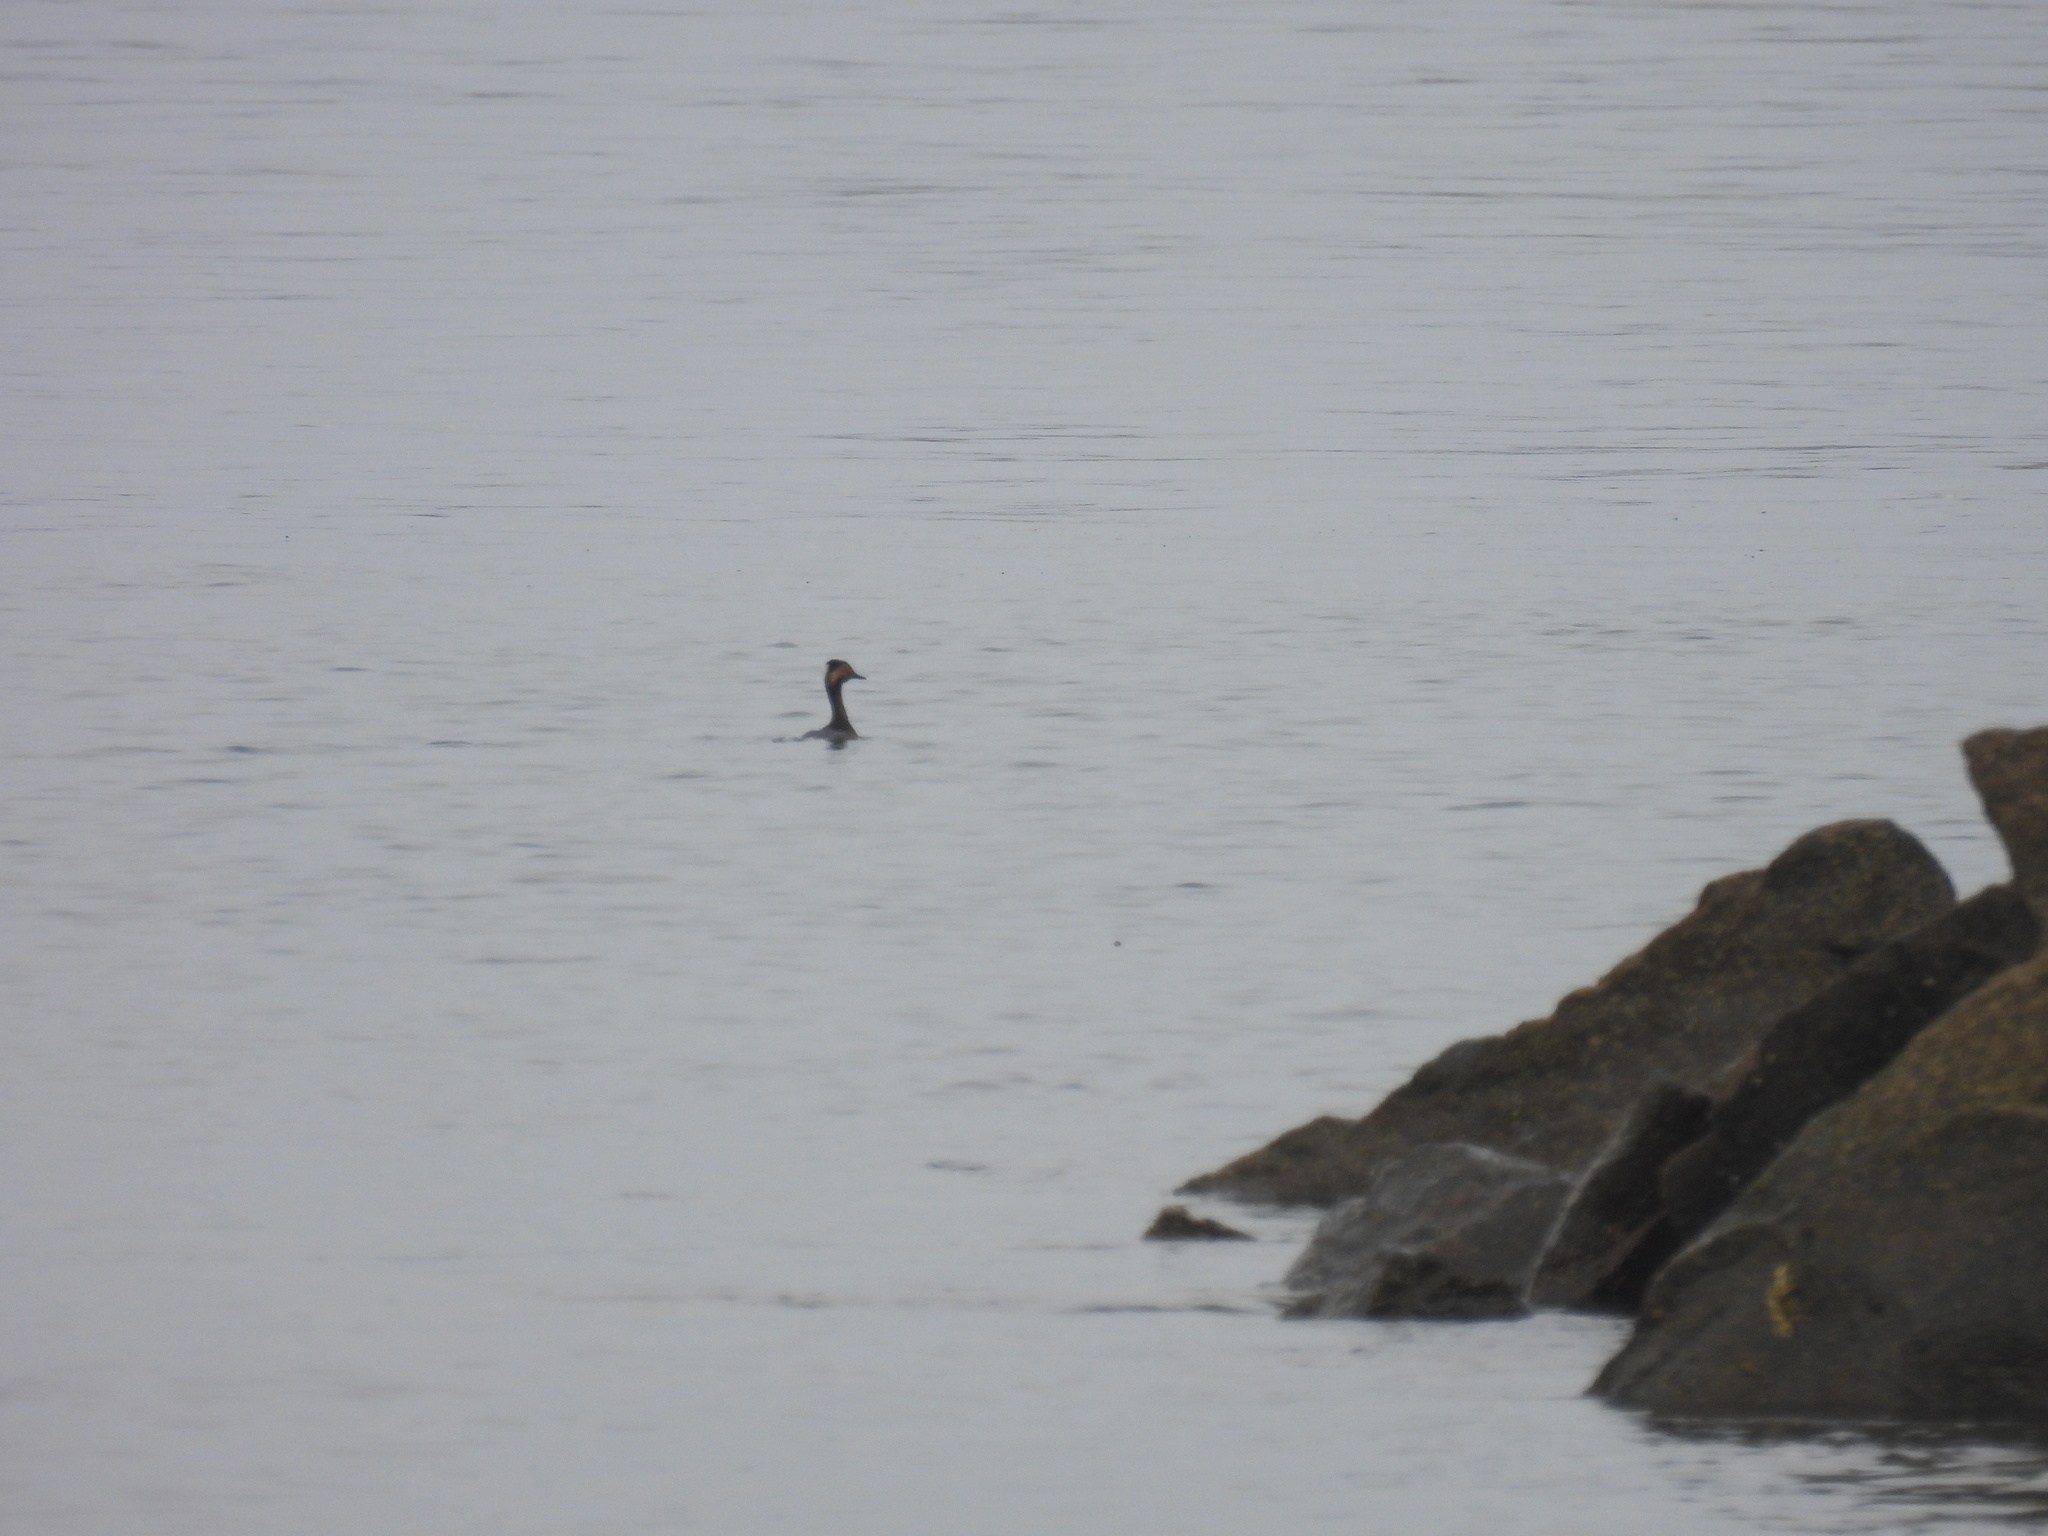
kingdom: Animalia
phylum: Chordata
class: Aves
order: Podicipediformes
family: Podicipedidae
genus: Podiceps
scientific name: Podiceps nigricollis
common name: Black-necked grebe
